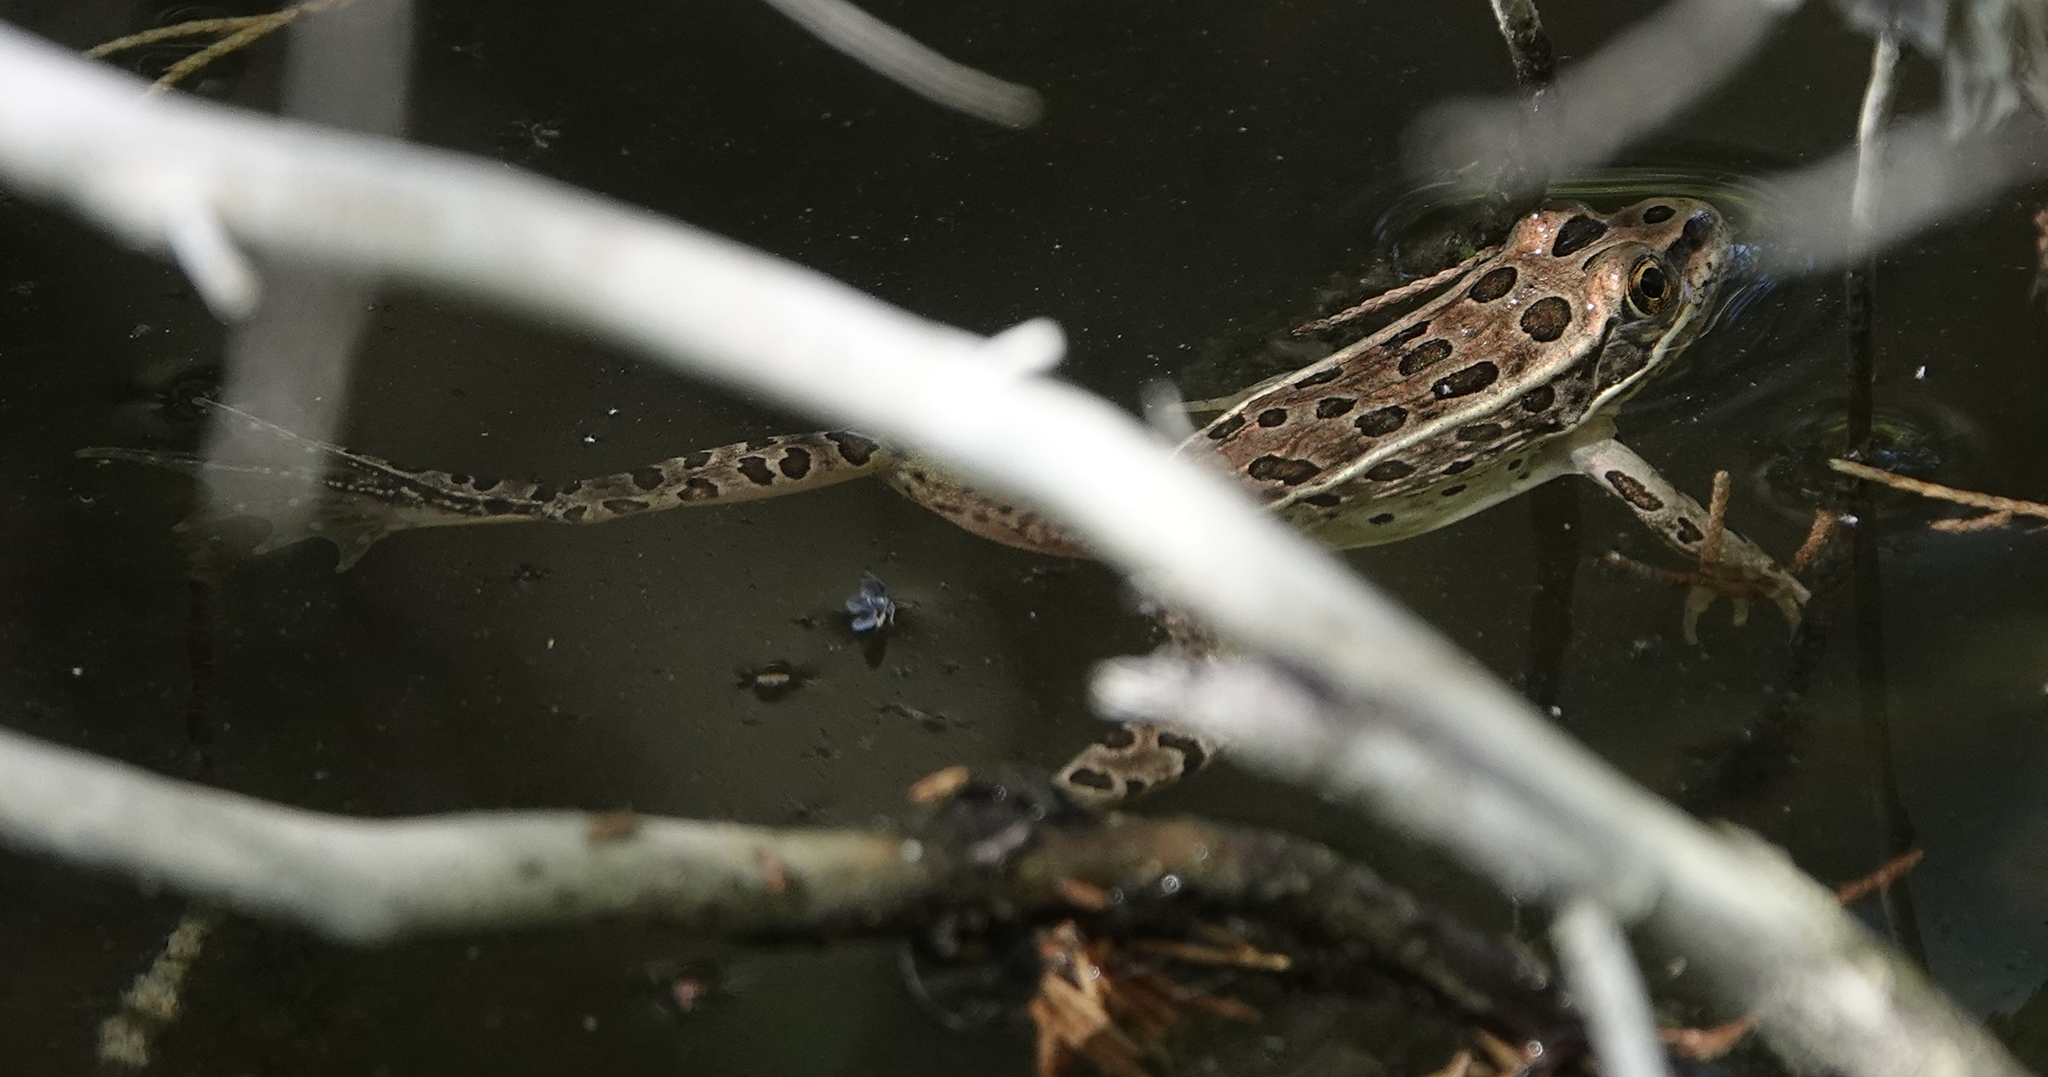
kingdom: Animalia
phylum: Chordata
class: Amphibia
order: Anura
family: Ranidae
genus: Lithobates
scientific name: Lithobates pipiens
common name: Northern leopard frog
